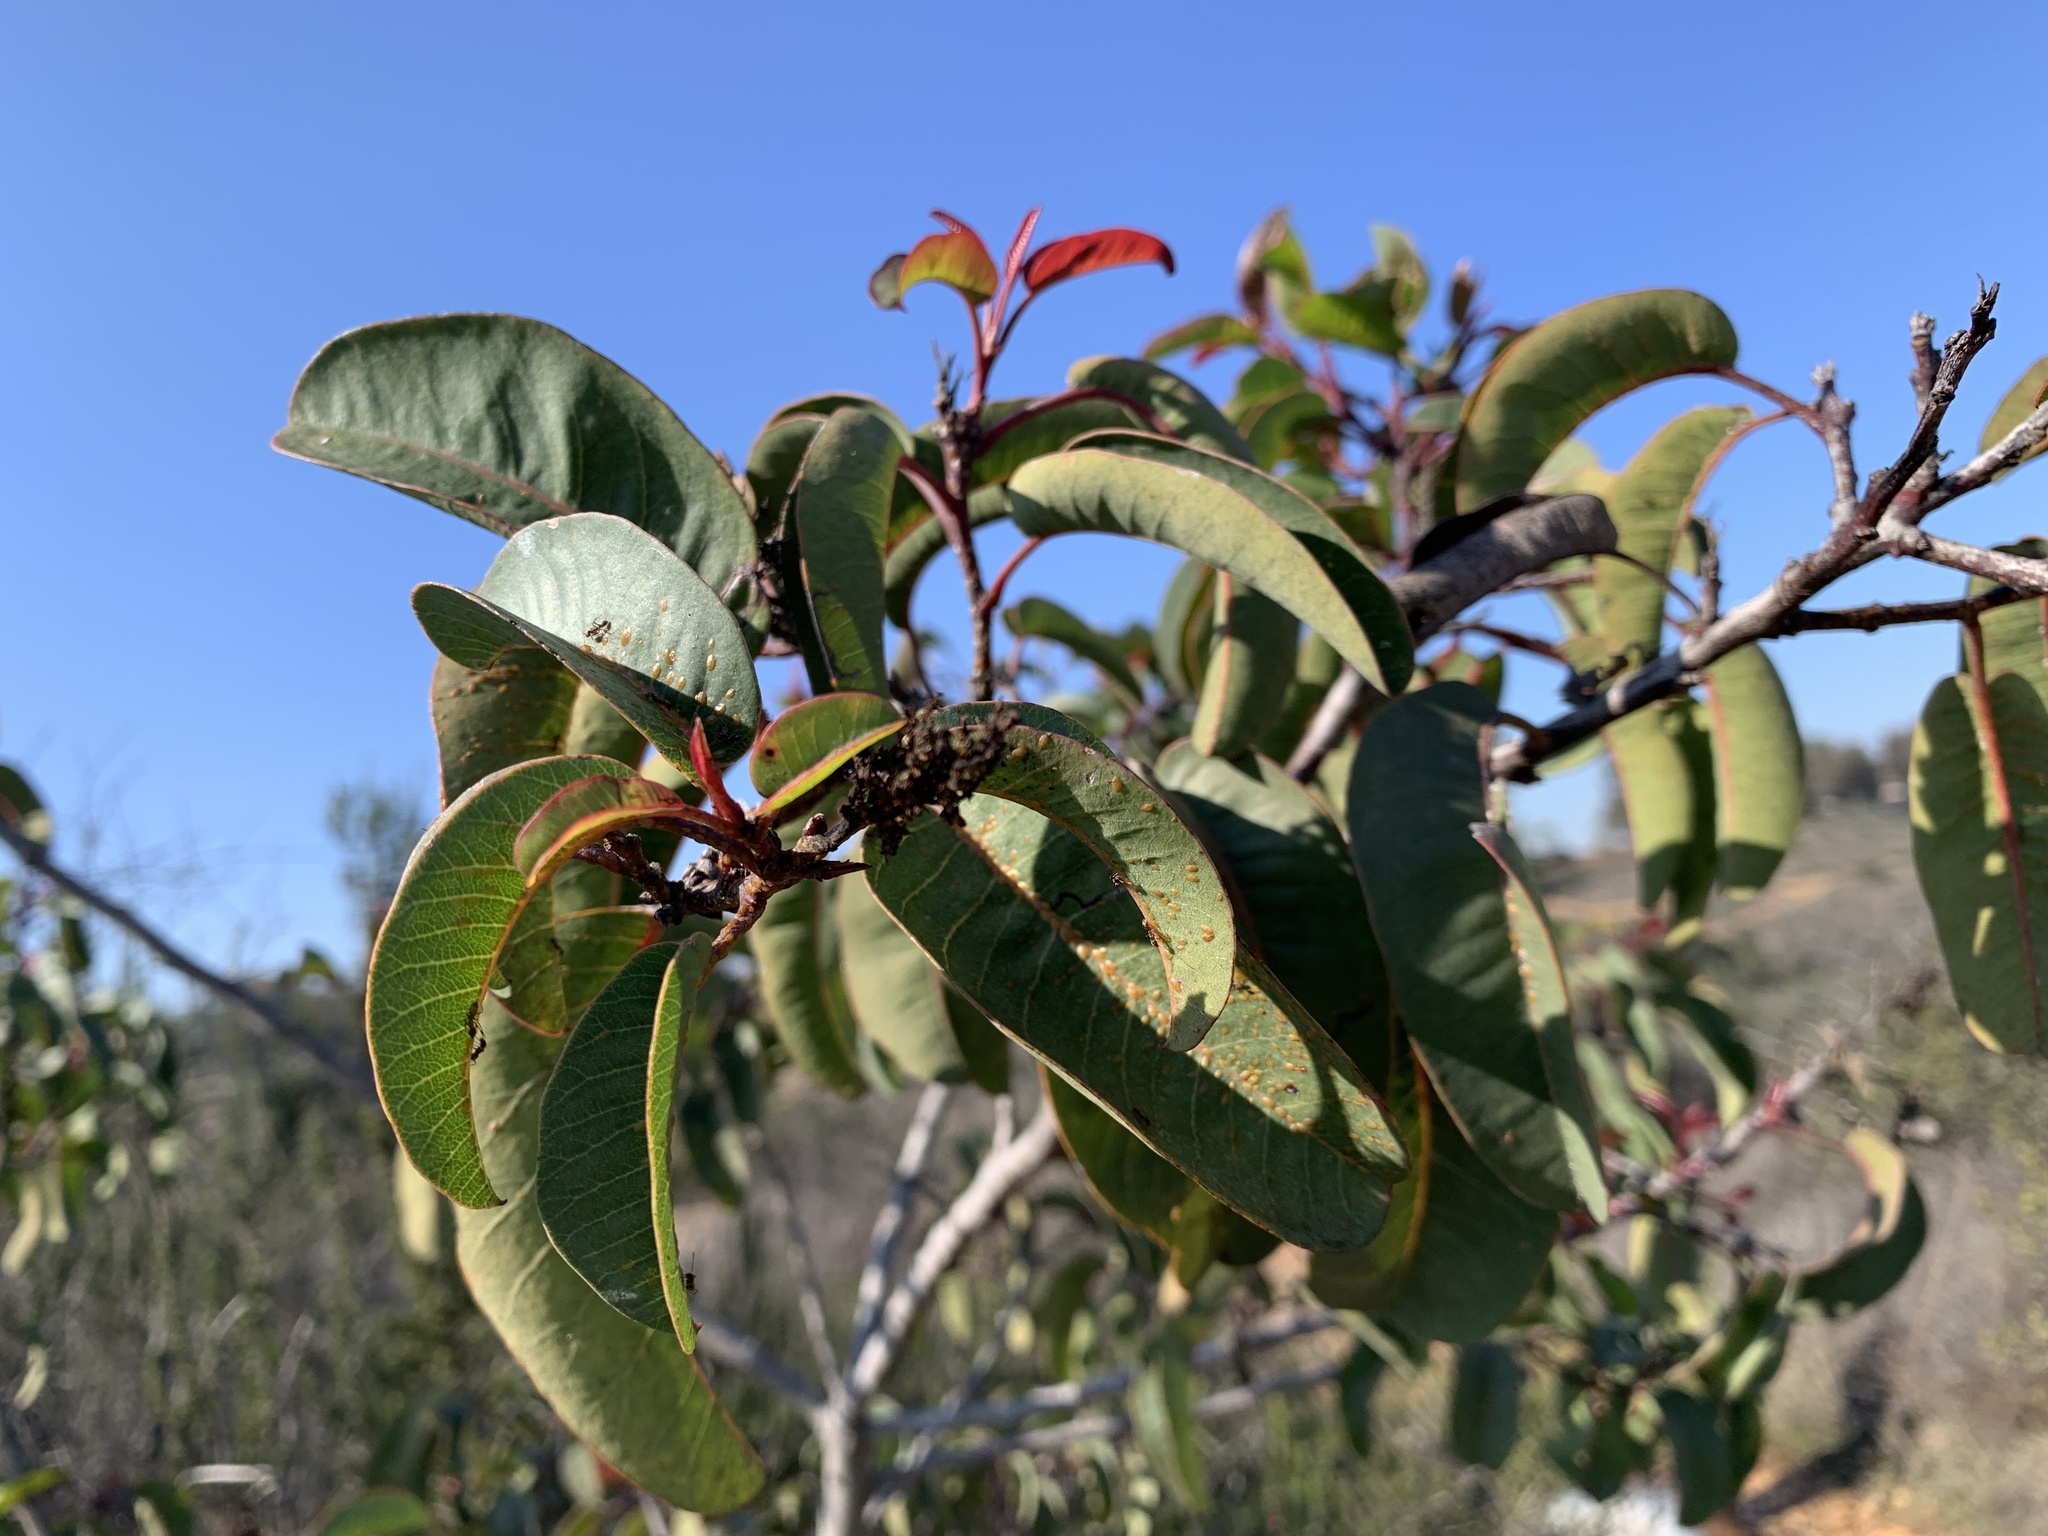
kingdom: Plantae
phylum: Tracheophyta
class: Magnoliopsida
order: Sapindales
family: Anacardiaceae
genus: Malosma
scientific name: Malosma laurina
